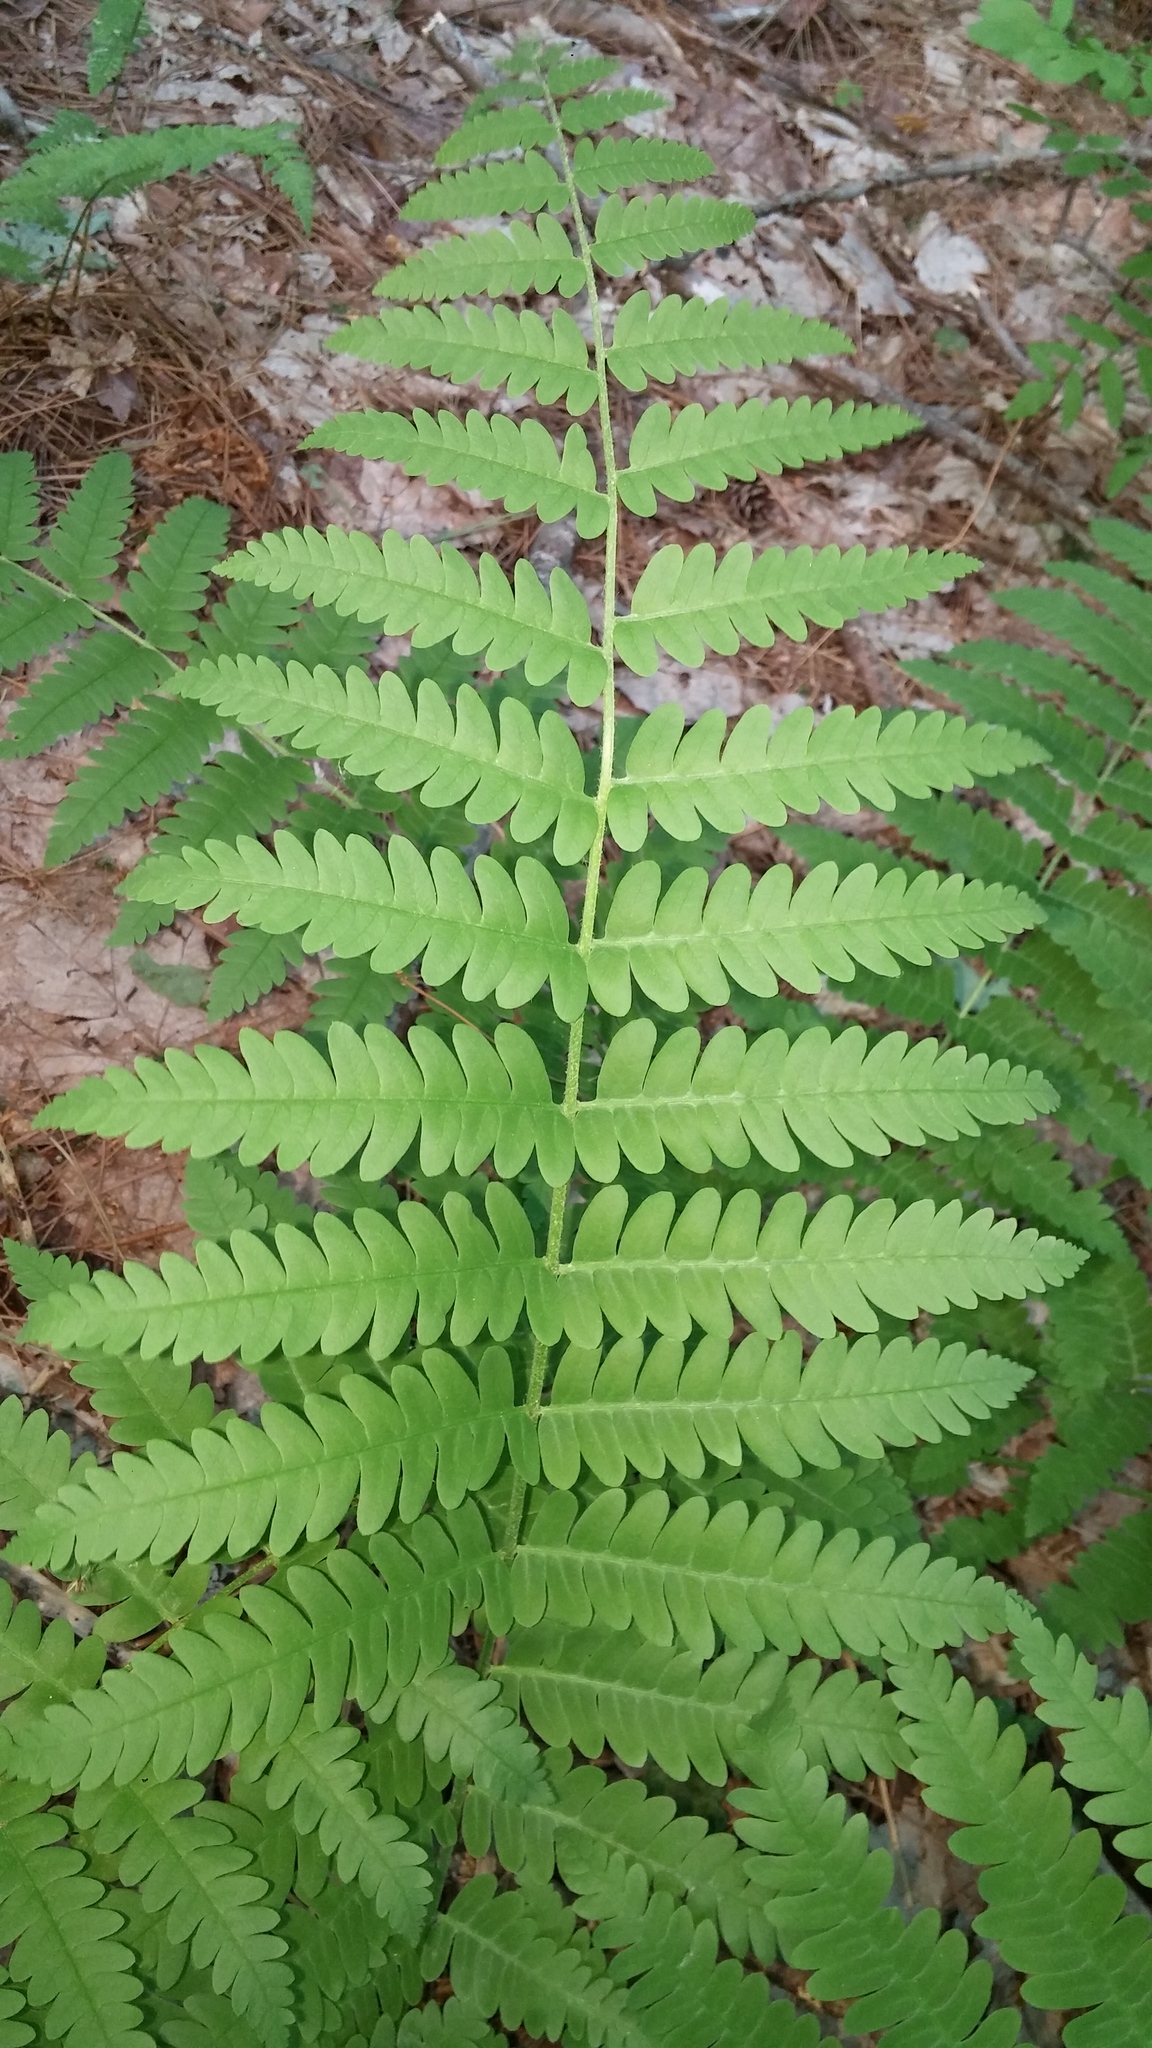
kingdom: Plantae
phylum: Tracheophyta
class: Polypodiopsida
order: Osmundales
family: Osmundaceae
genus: Claytosmunda
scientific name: Claytosmunda claytoniana
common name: Clayton's fern
